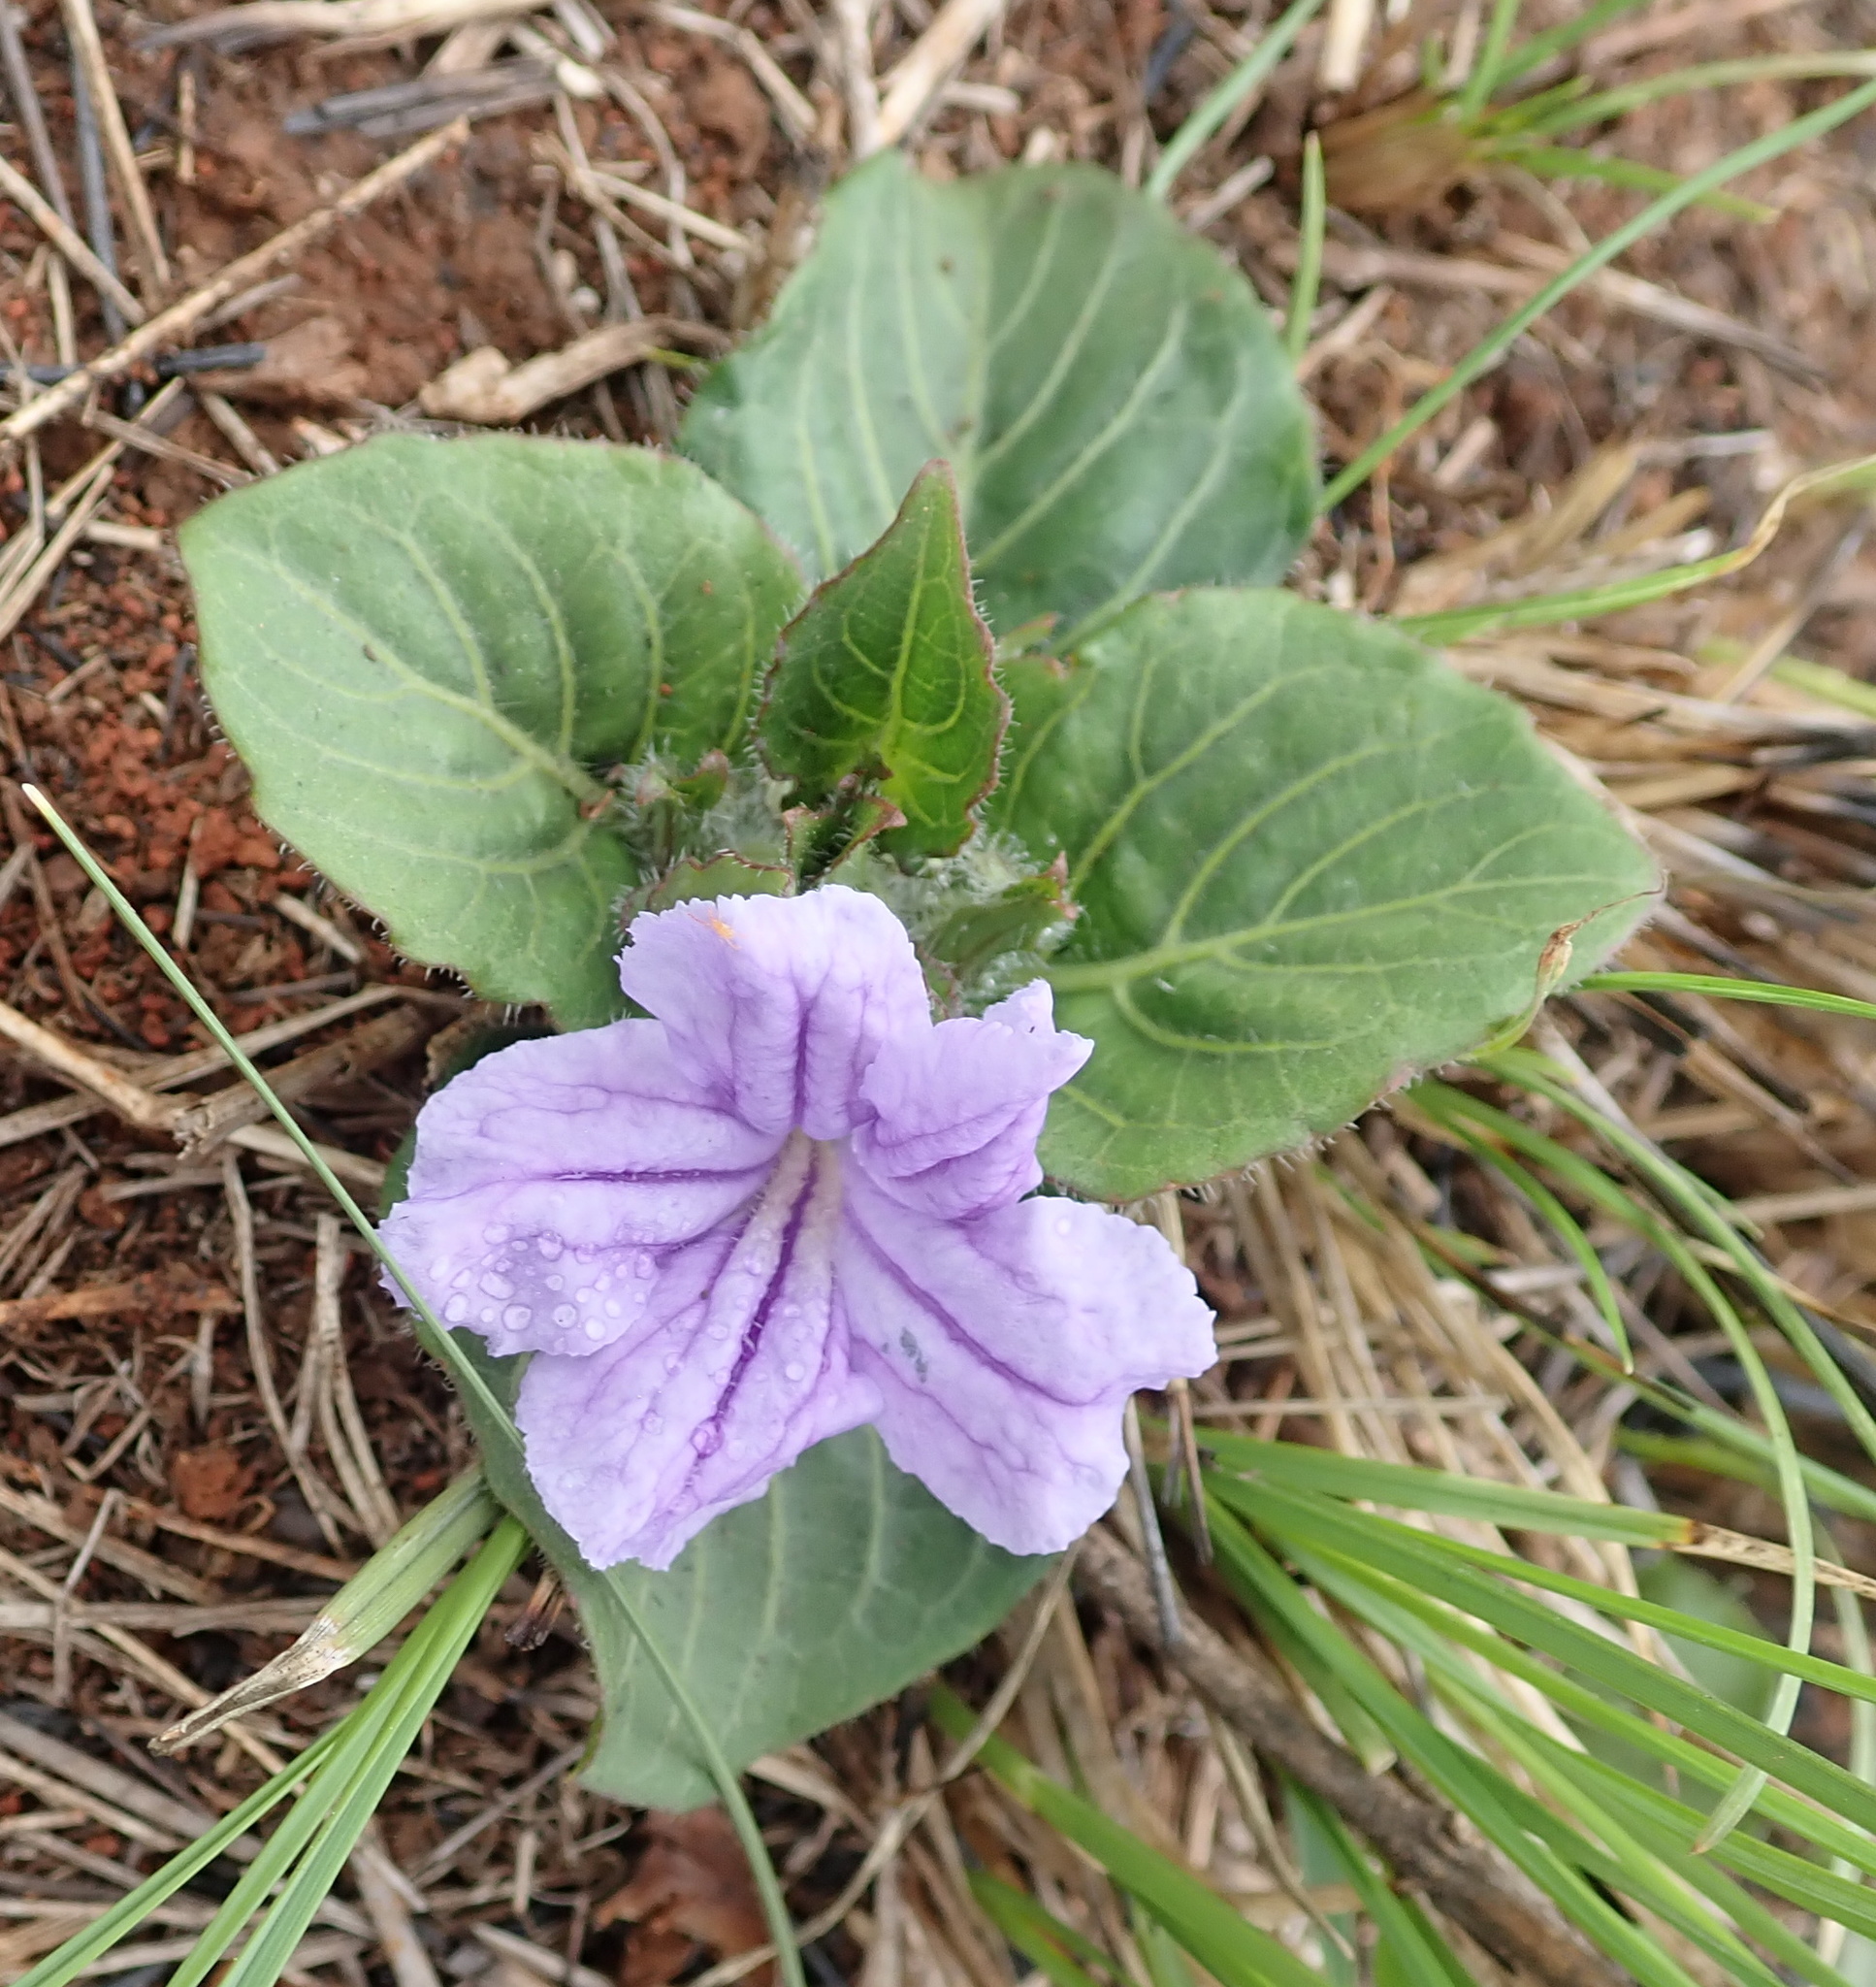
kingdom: Plantae
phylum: Tracheophyta
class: Magnoliopsida
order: Lamiales
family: Acanthaceae
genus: Ruellia
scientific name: Ruellia cordata
